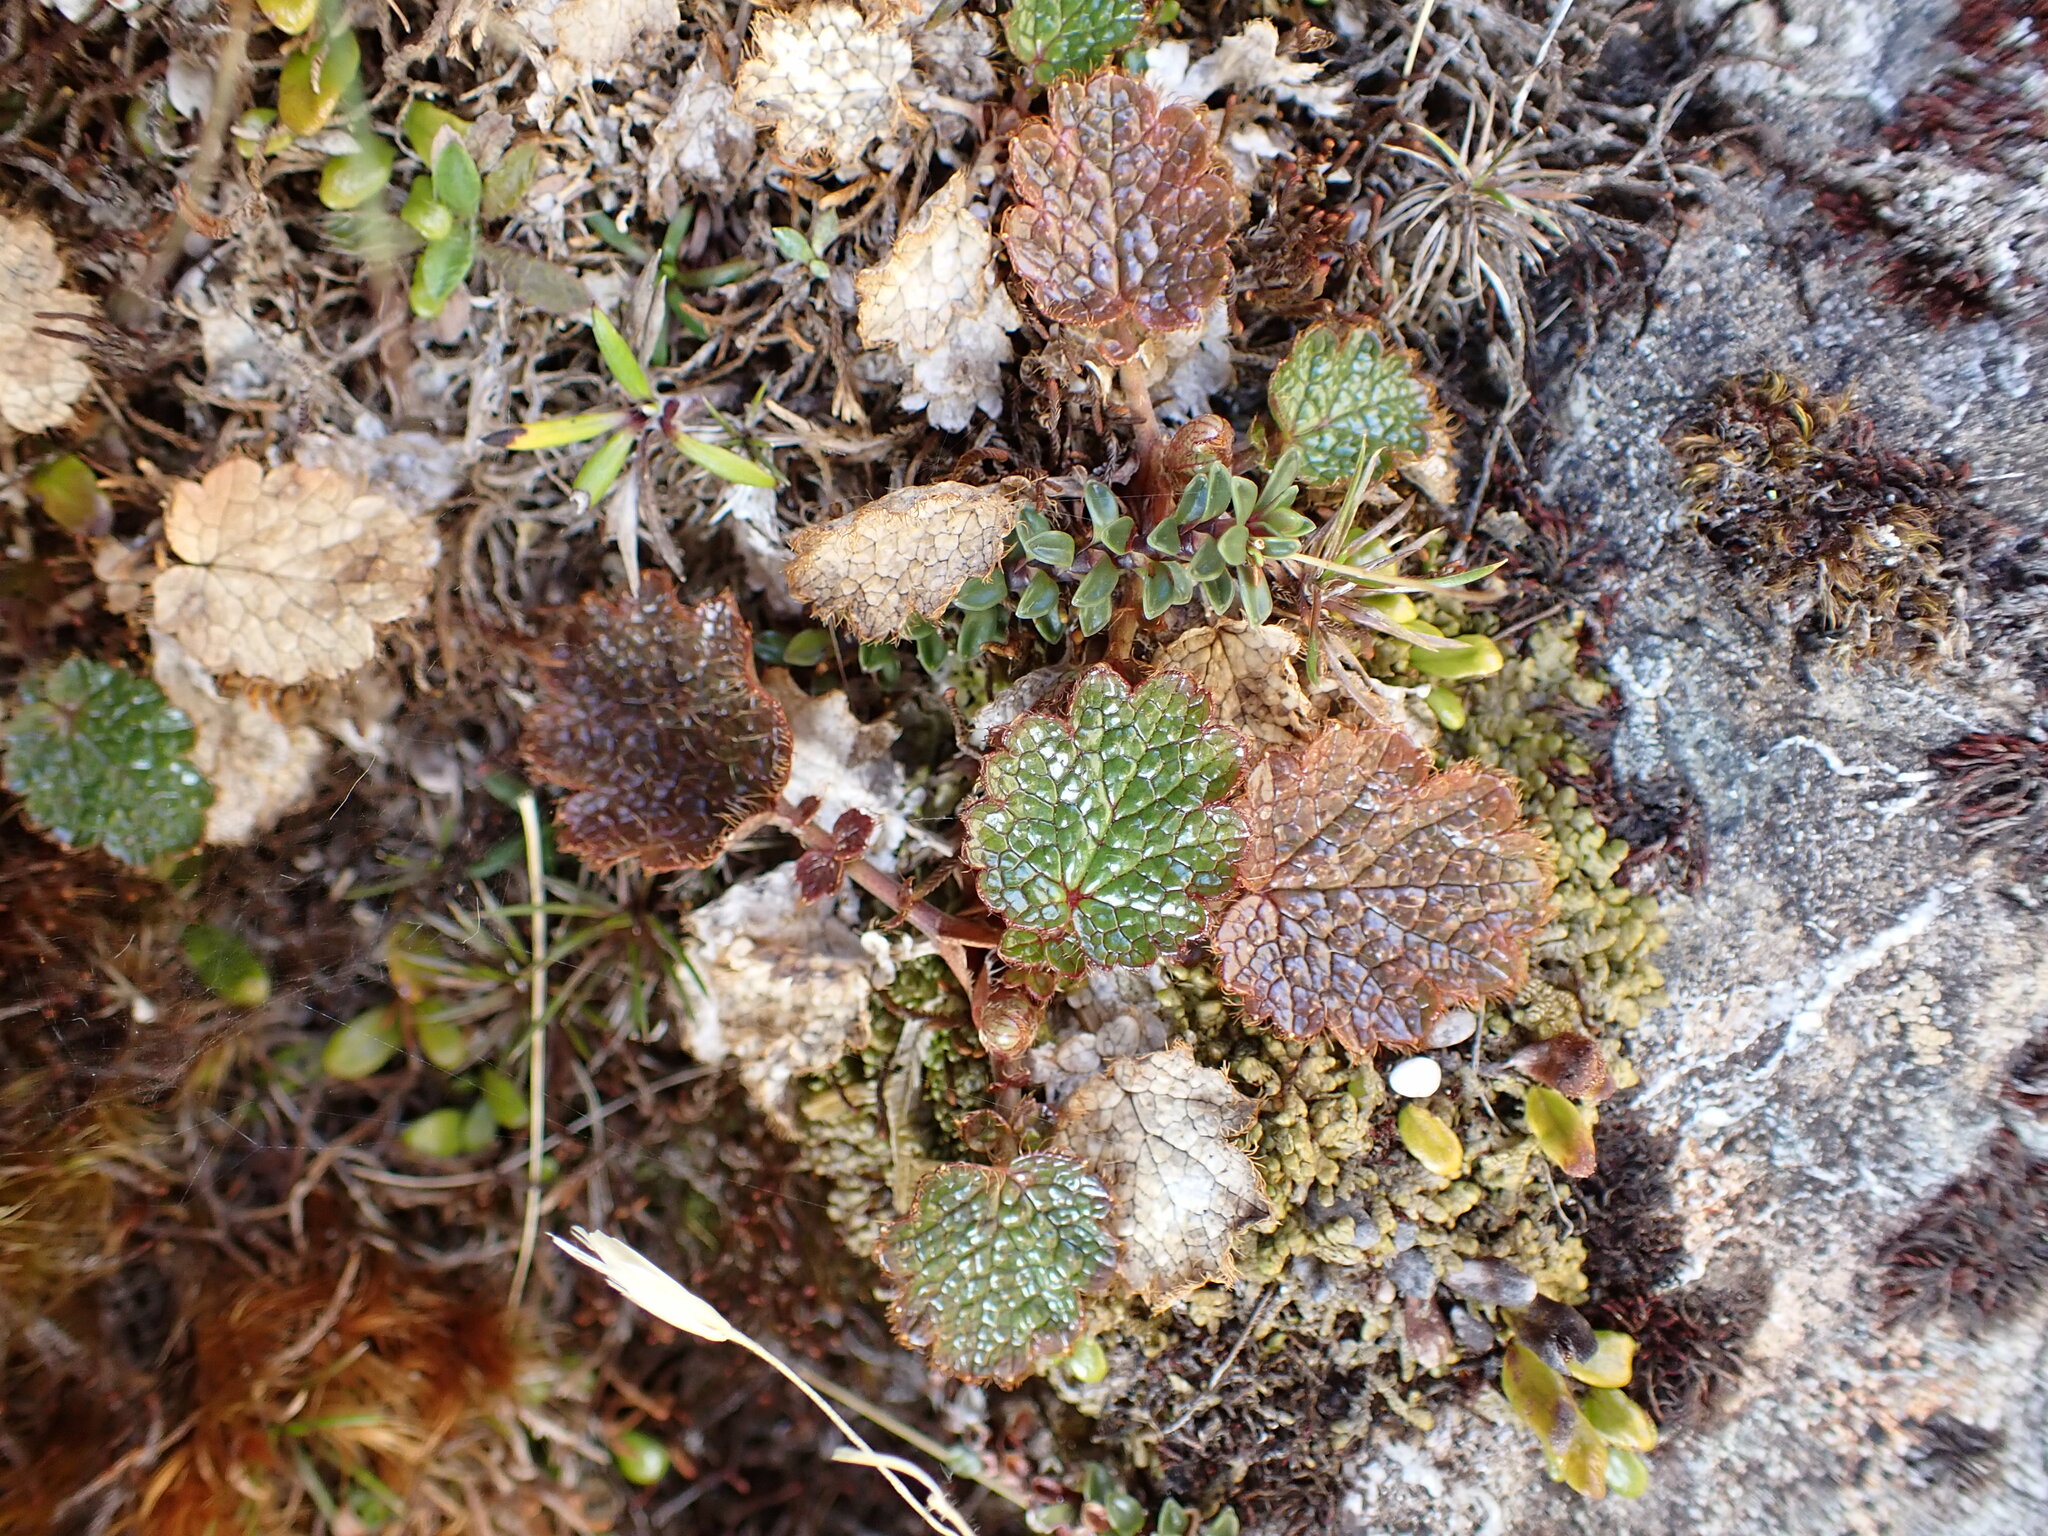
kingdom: Plantae
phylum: Tracheophyta
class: Magnoliopsida
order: Rosales
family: Rosaceae
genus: Geum
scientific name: Geum uniflorum
